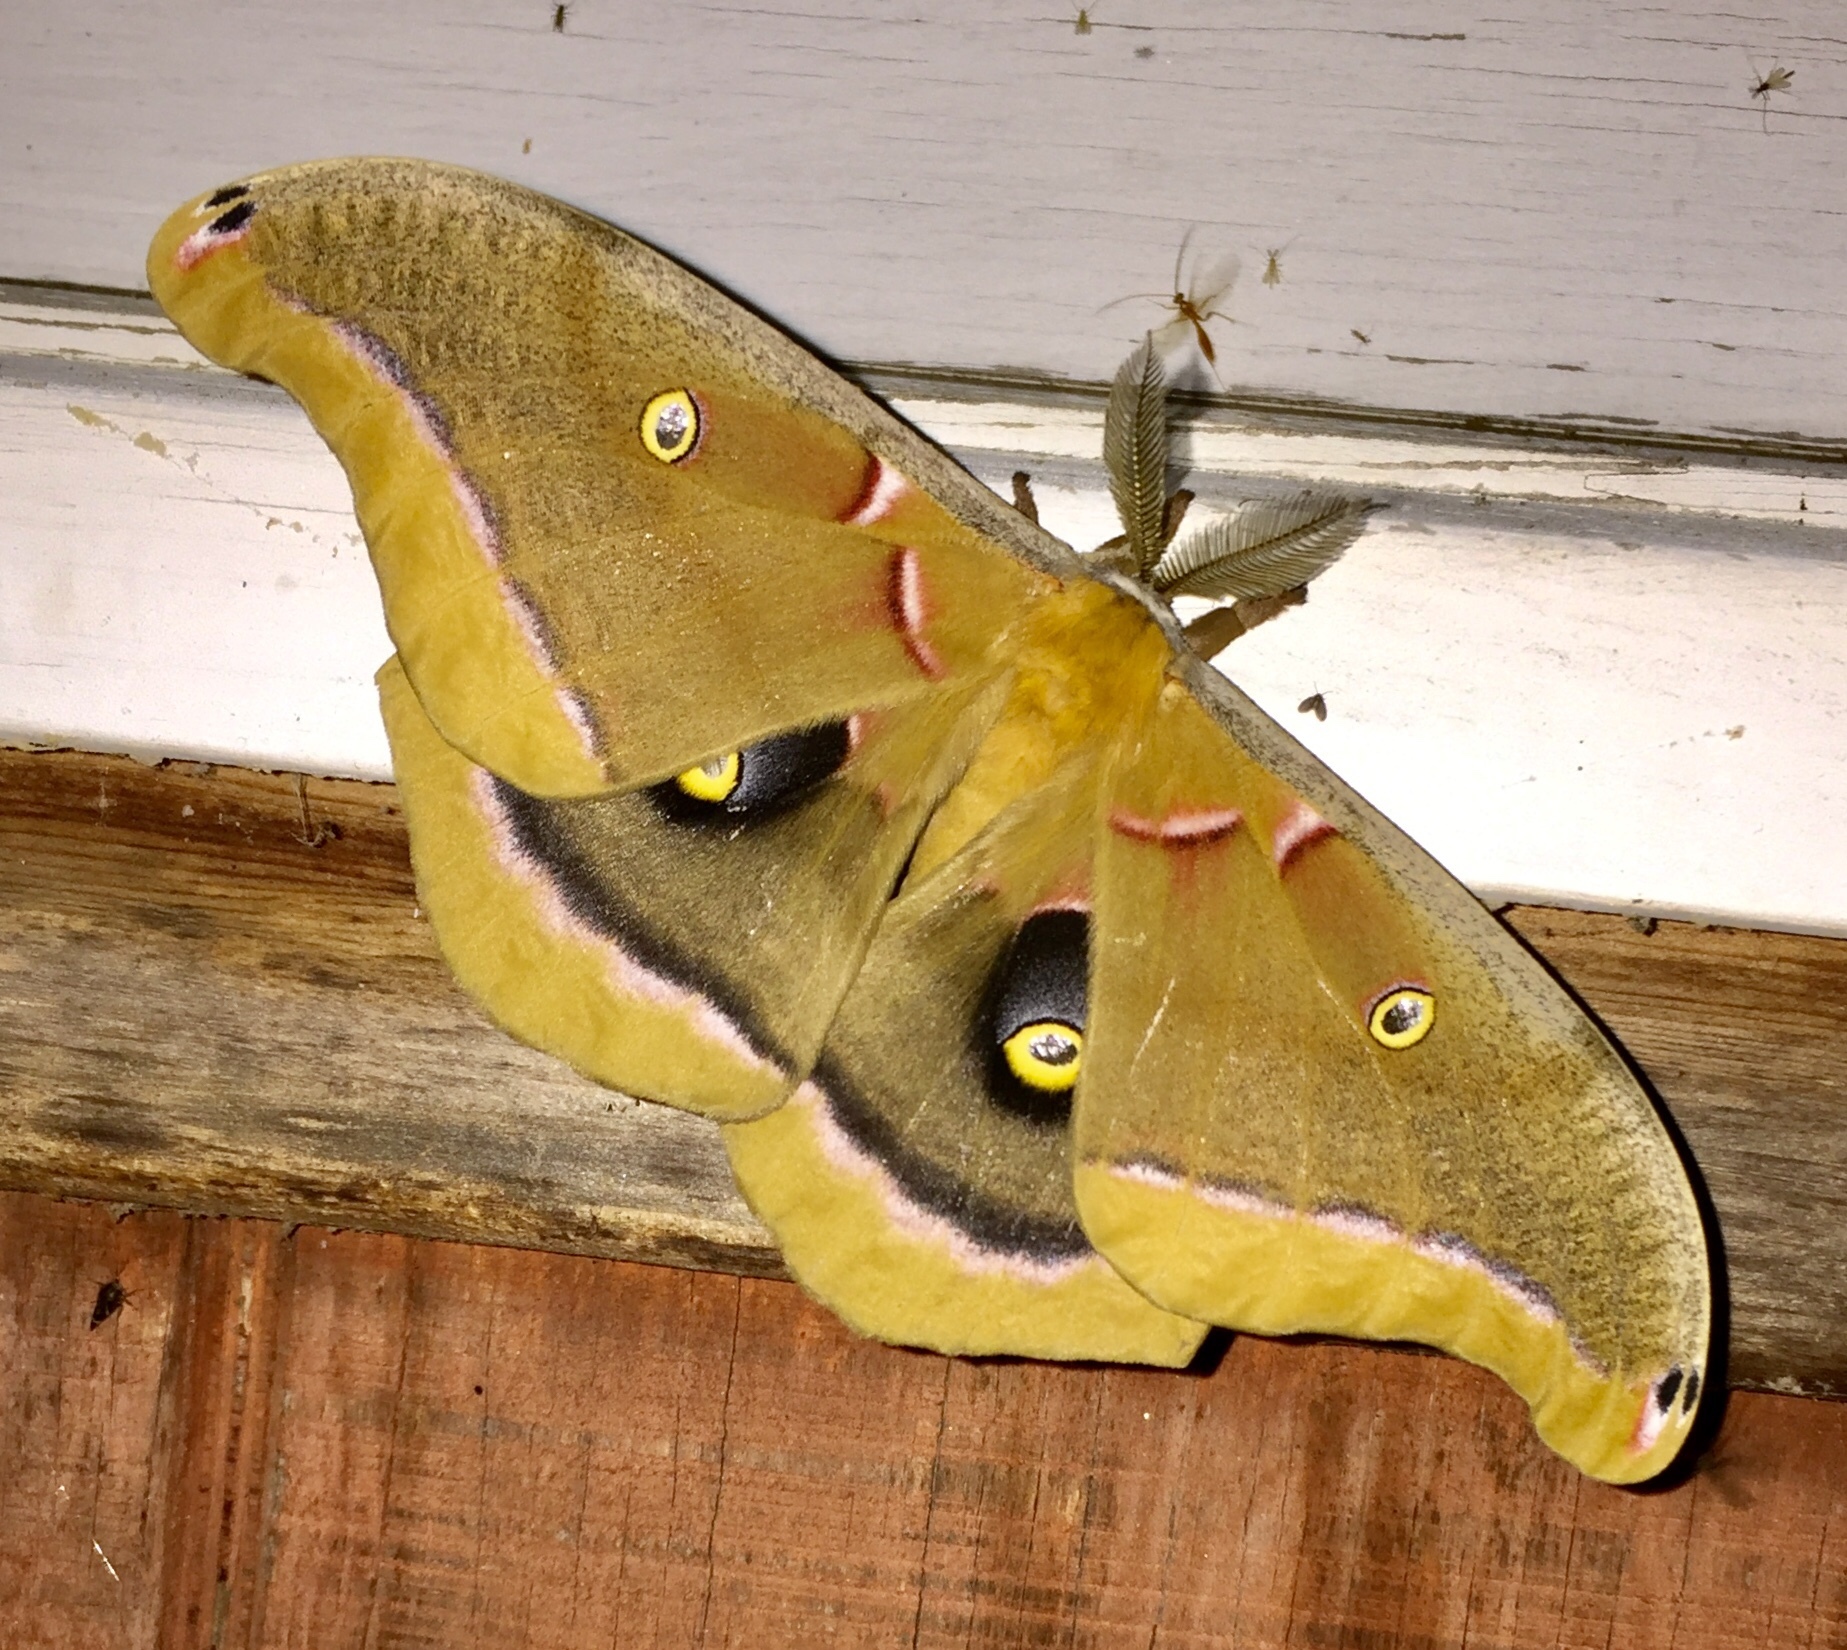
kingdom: Animalia
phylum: Arthropoda
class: Insecta
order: Lepidoptera
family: Saturniidae
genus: Antheraea
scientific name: Antheraea polyphemus
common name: Polyphemus moth
